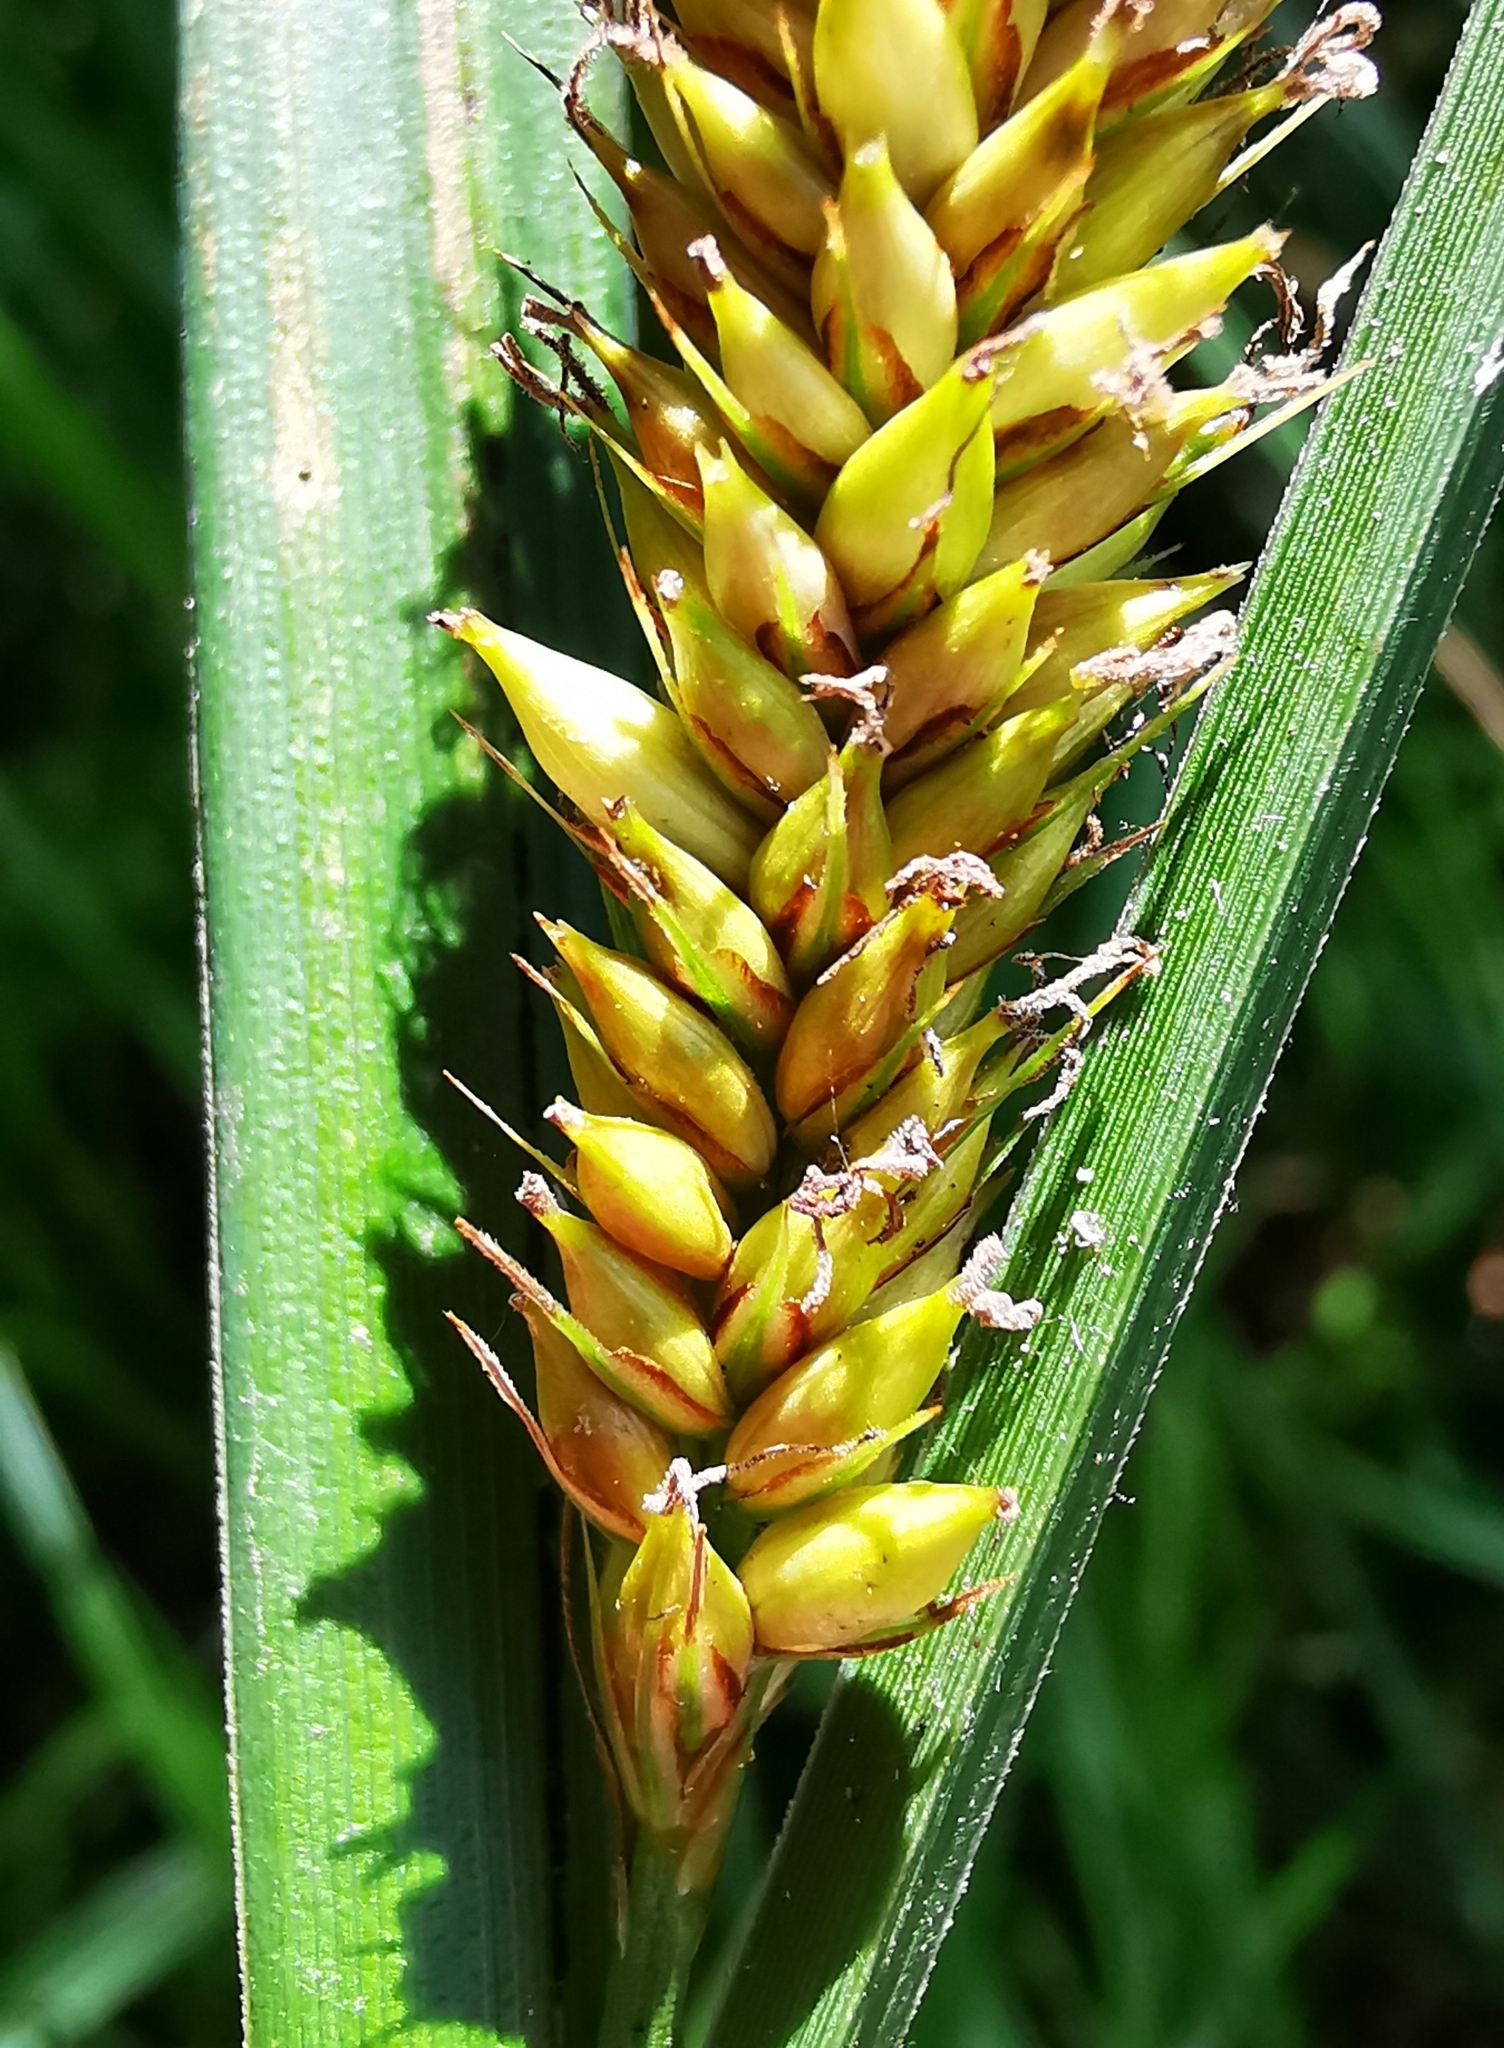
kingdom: Plantae
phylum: Tracheophyta
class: Liliopsida
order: Poales
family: Cyperaceae
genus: Carex
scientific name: Carex riparia
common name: Greater pond-sedge
